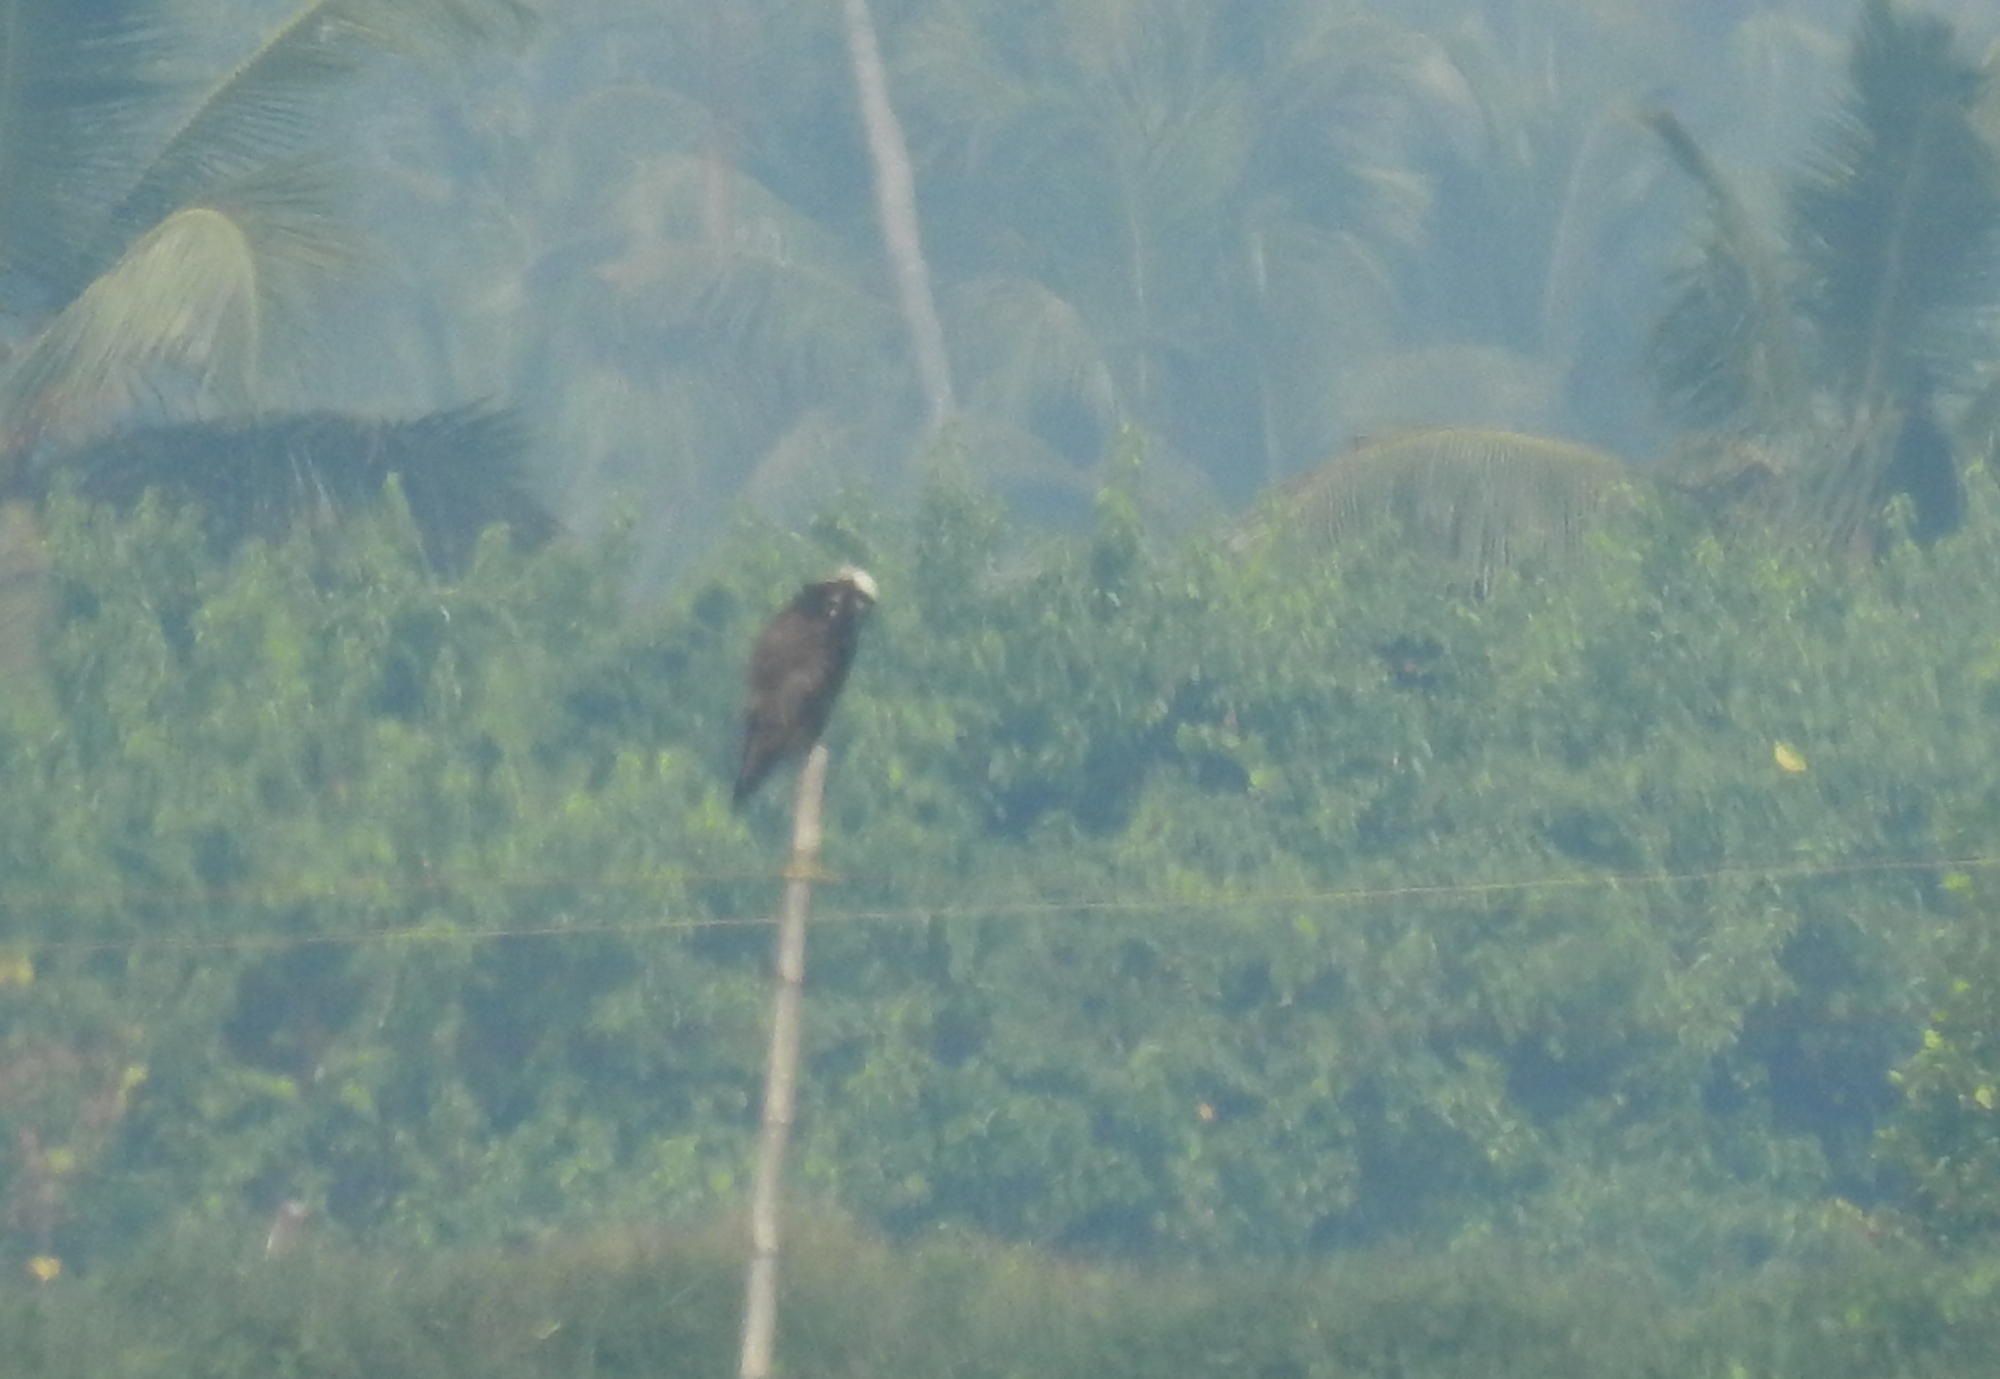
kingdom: Animalia
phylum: Chordata
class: Aves
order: Accipitriformes
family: Pandionidae
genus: Pandion
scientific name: Pandion haliaetus
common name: Osprey
